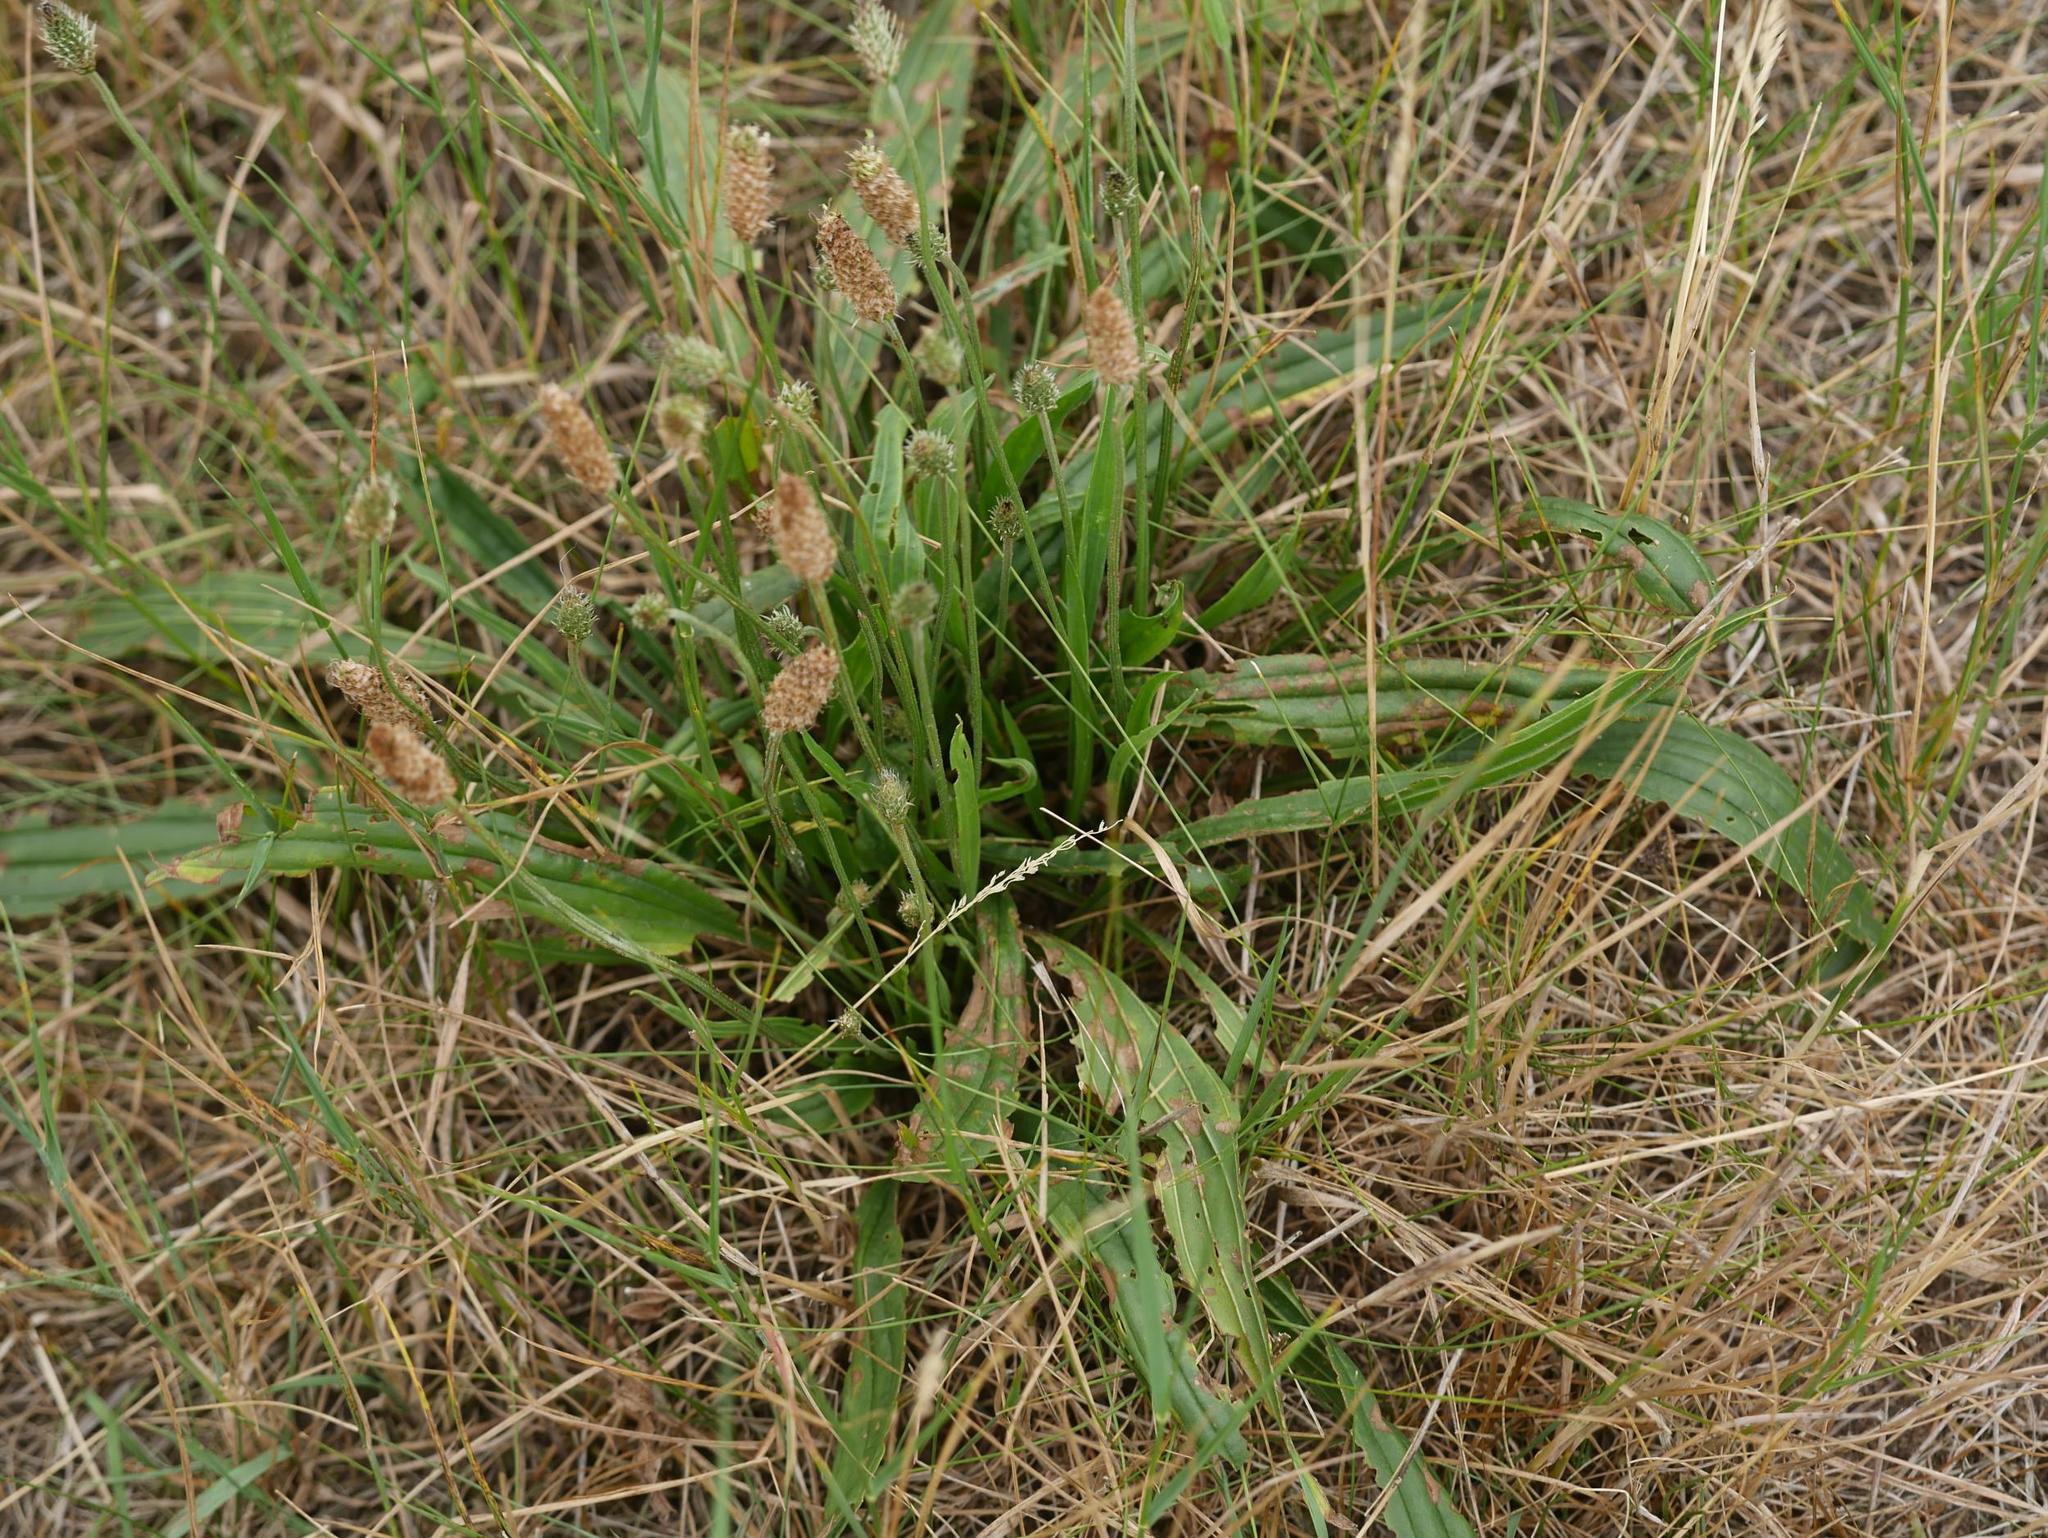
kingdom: Plantae
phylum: Tracheophyta
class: Magnoliopsida
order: Lamiales
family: Plantaginaceae
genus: Plantago
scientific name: Plantago lanceolata
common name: Ribwort plantain
